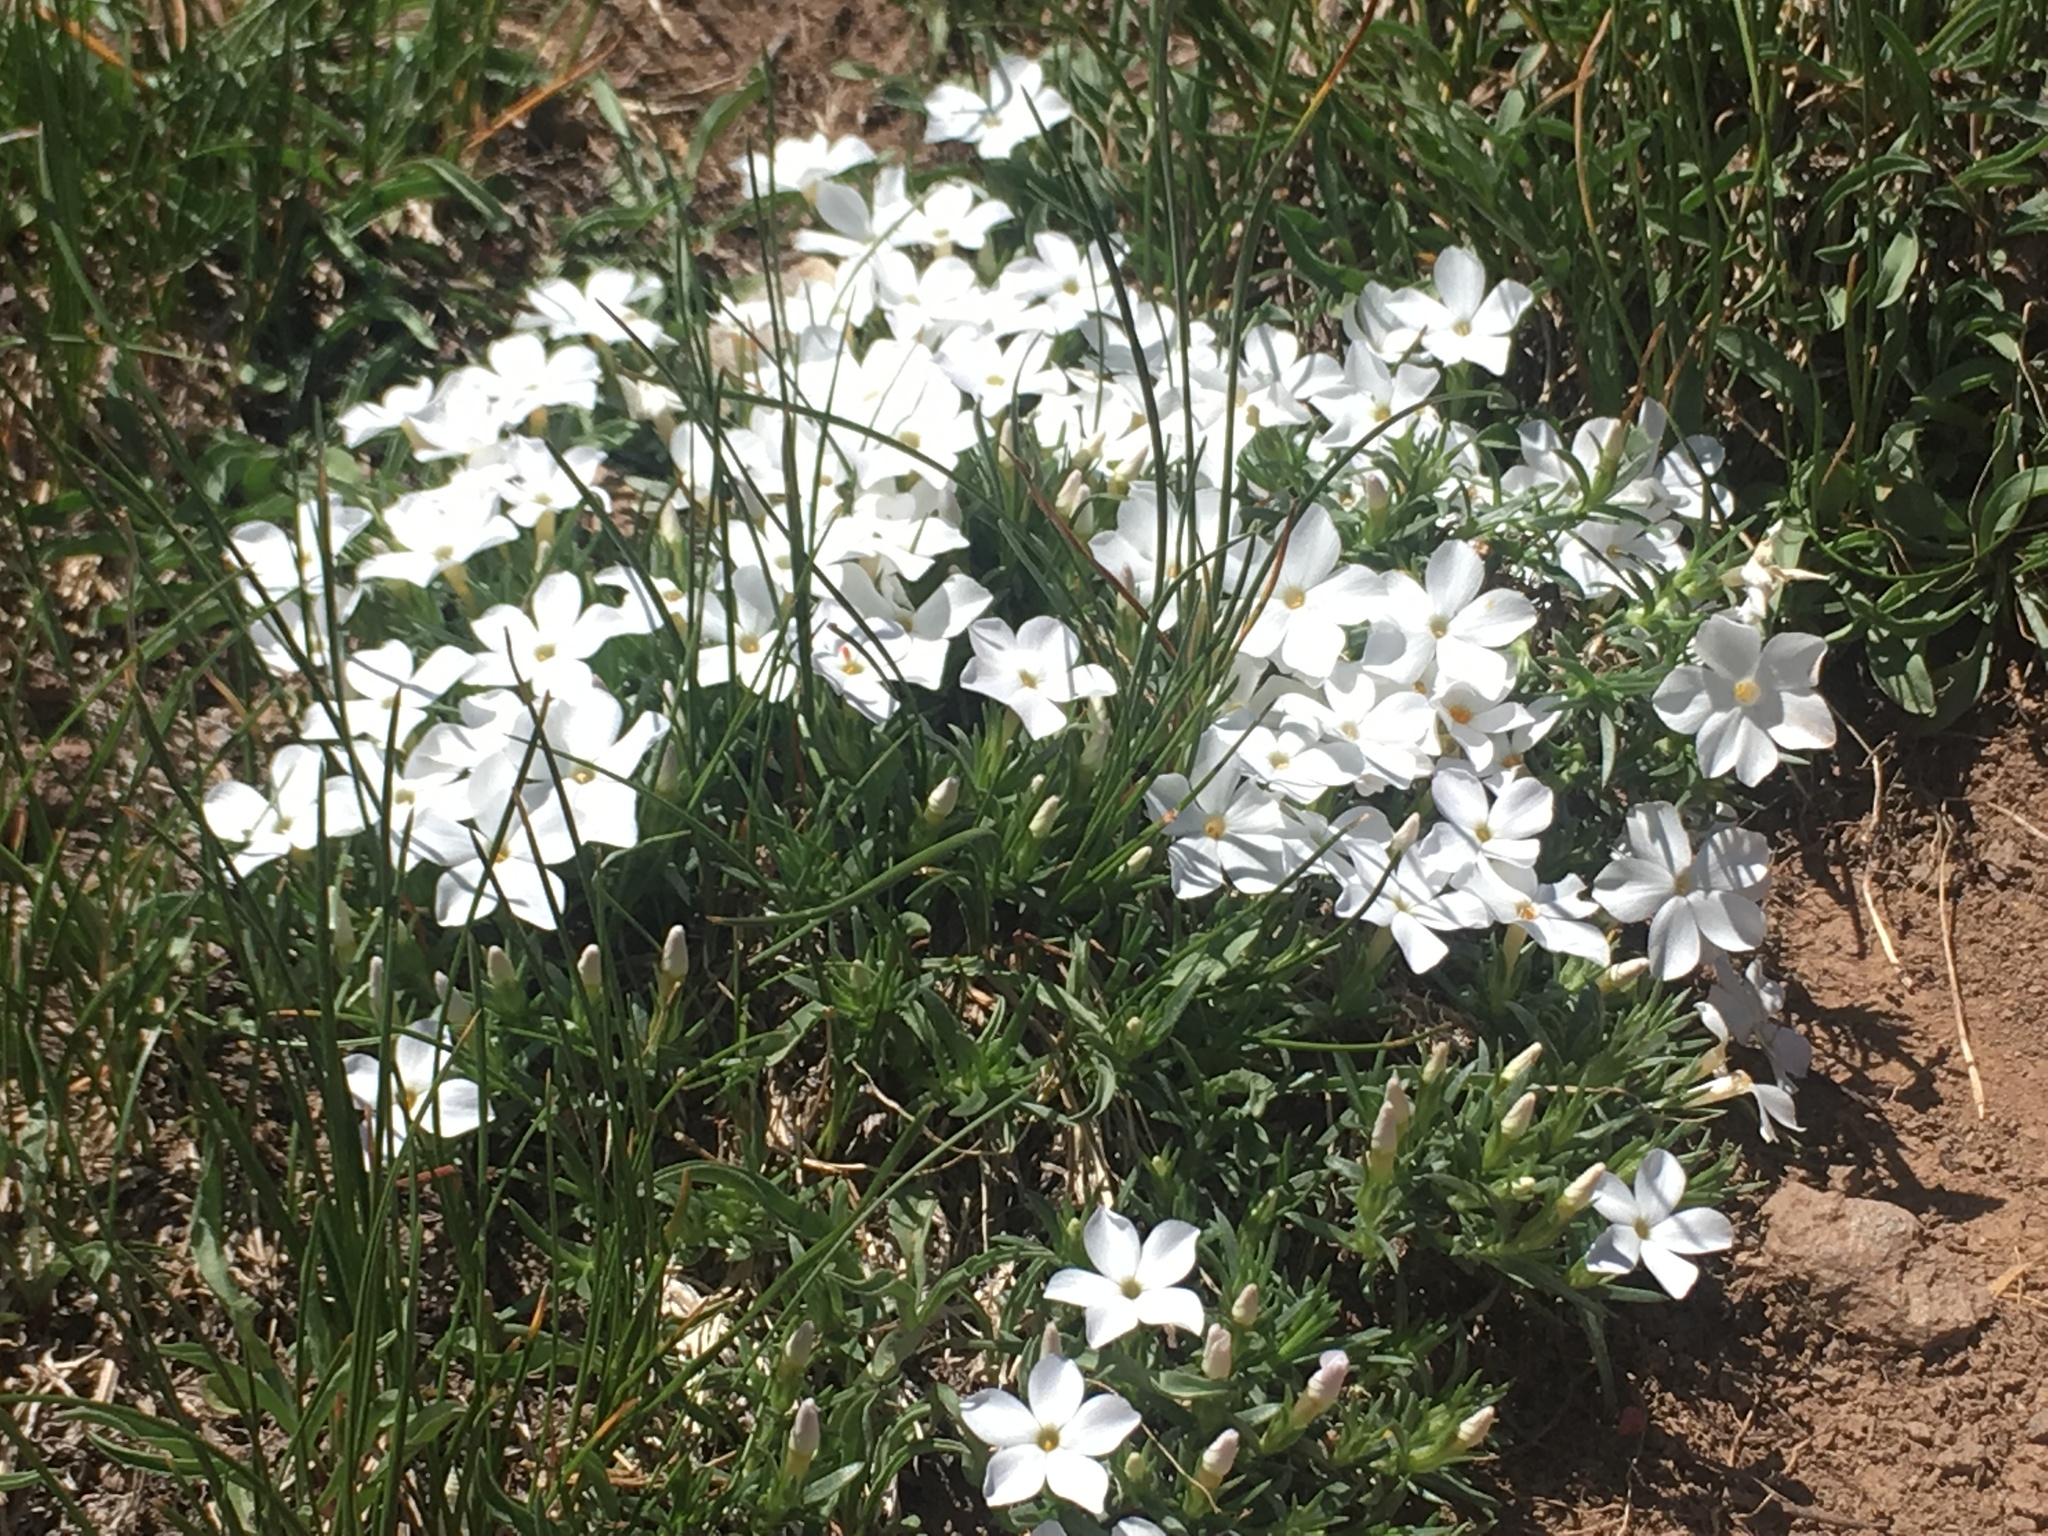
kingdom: Plantae
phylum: Tracheophyta
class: Magnoliopsida
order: Ericales
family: Polemoniaceae
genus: Phlox
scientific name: Phlox multiflora
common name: Rocky mountain phlox
